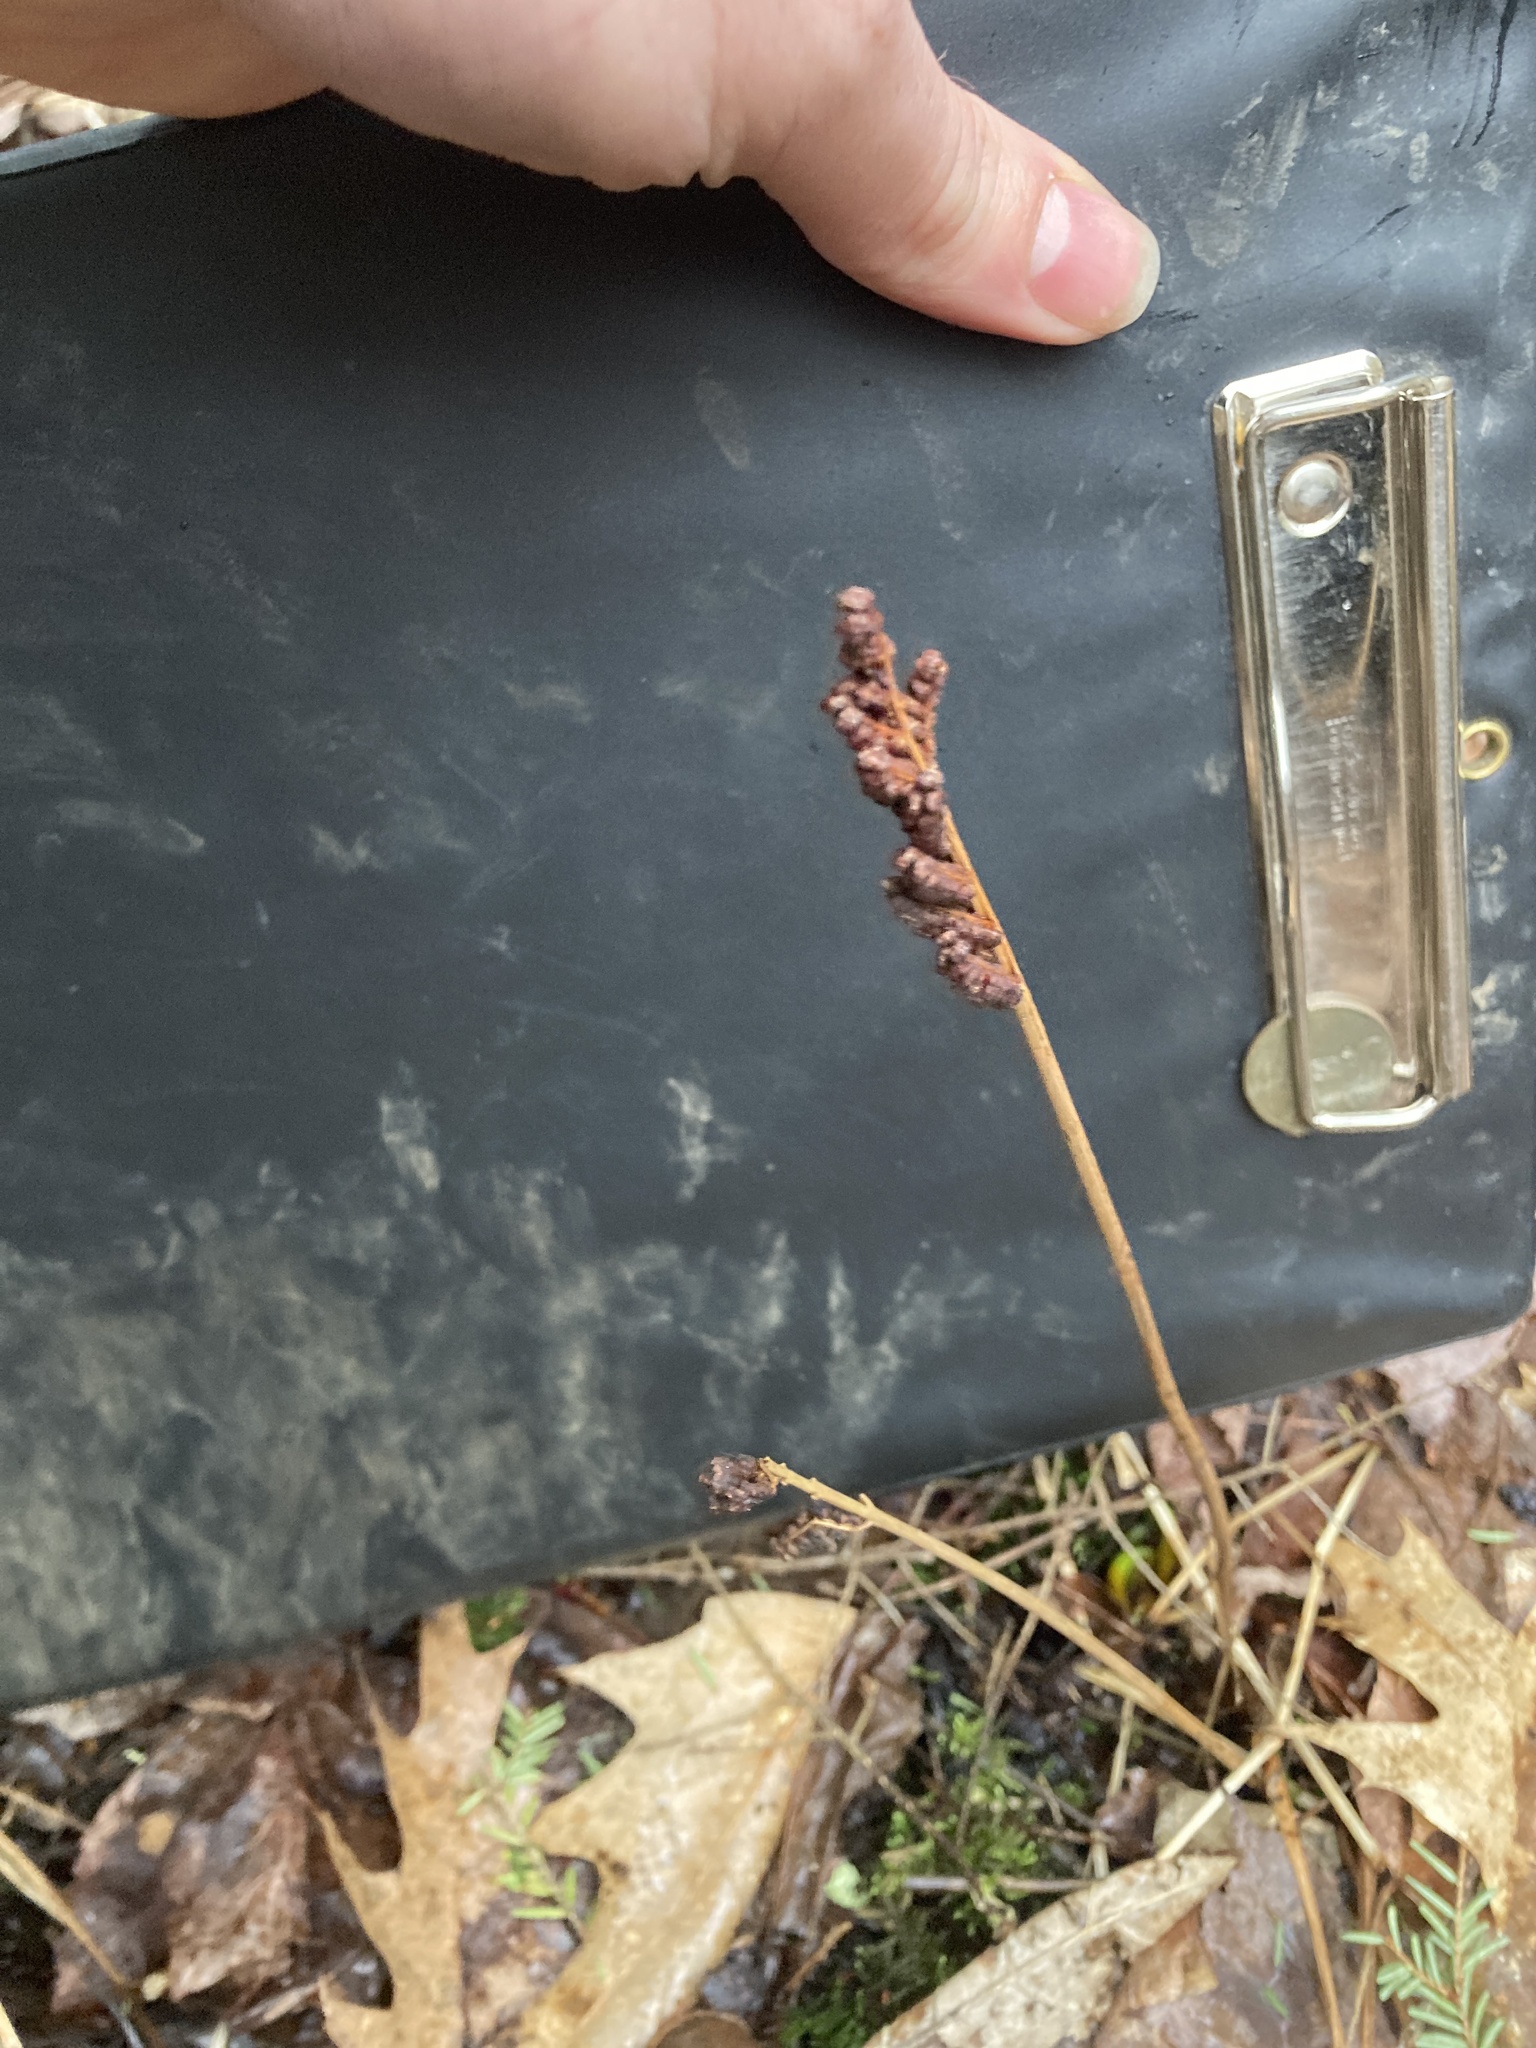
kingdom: Plantae
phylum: Tracheophyta
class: Polypodiopsida
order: Polypodiales
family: Onocleaceae
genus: Onoclea
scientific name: Onoclea sensibilis
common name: Sensitive fern
